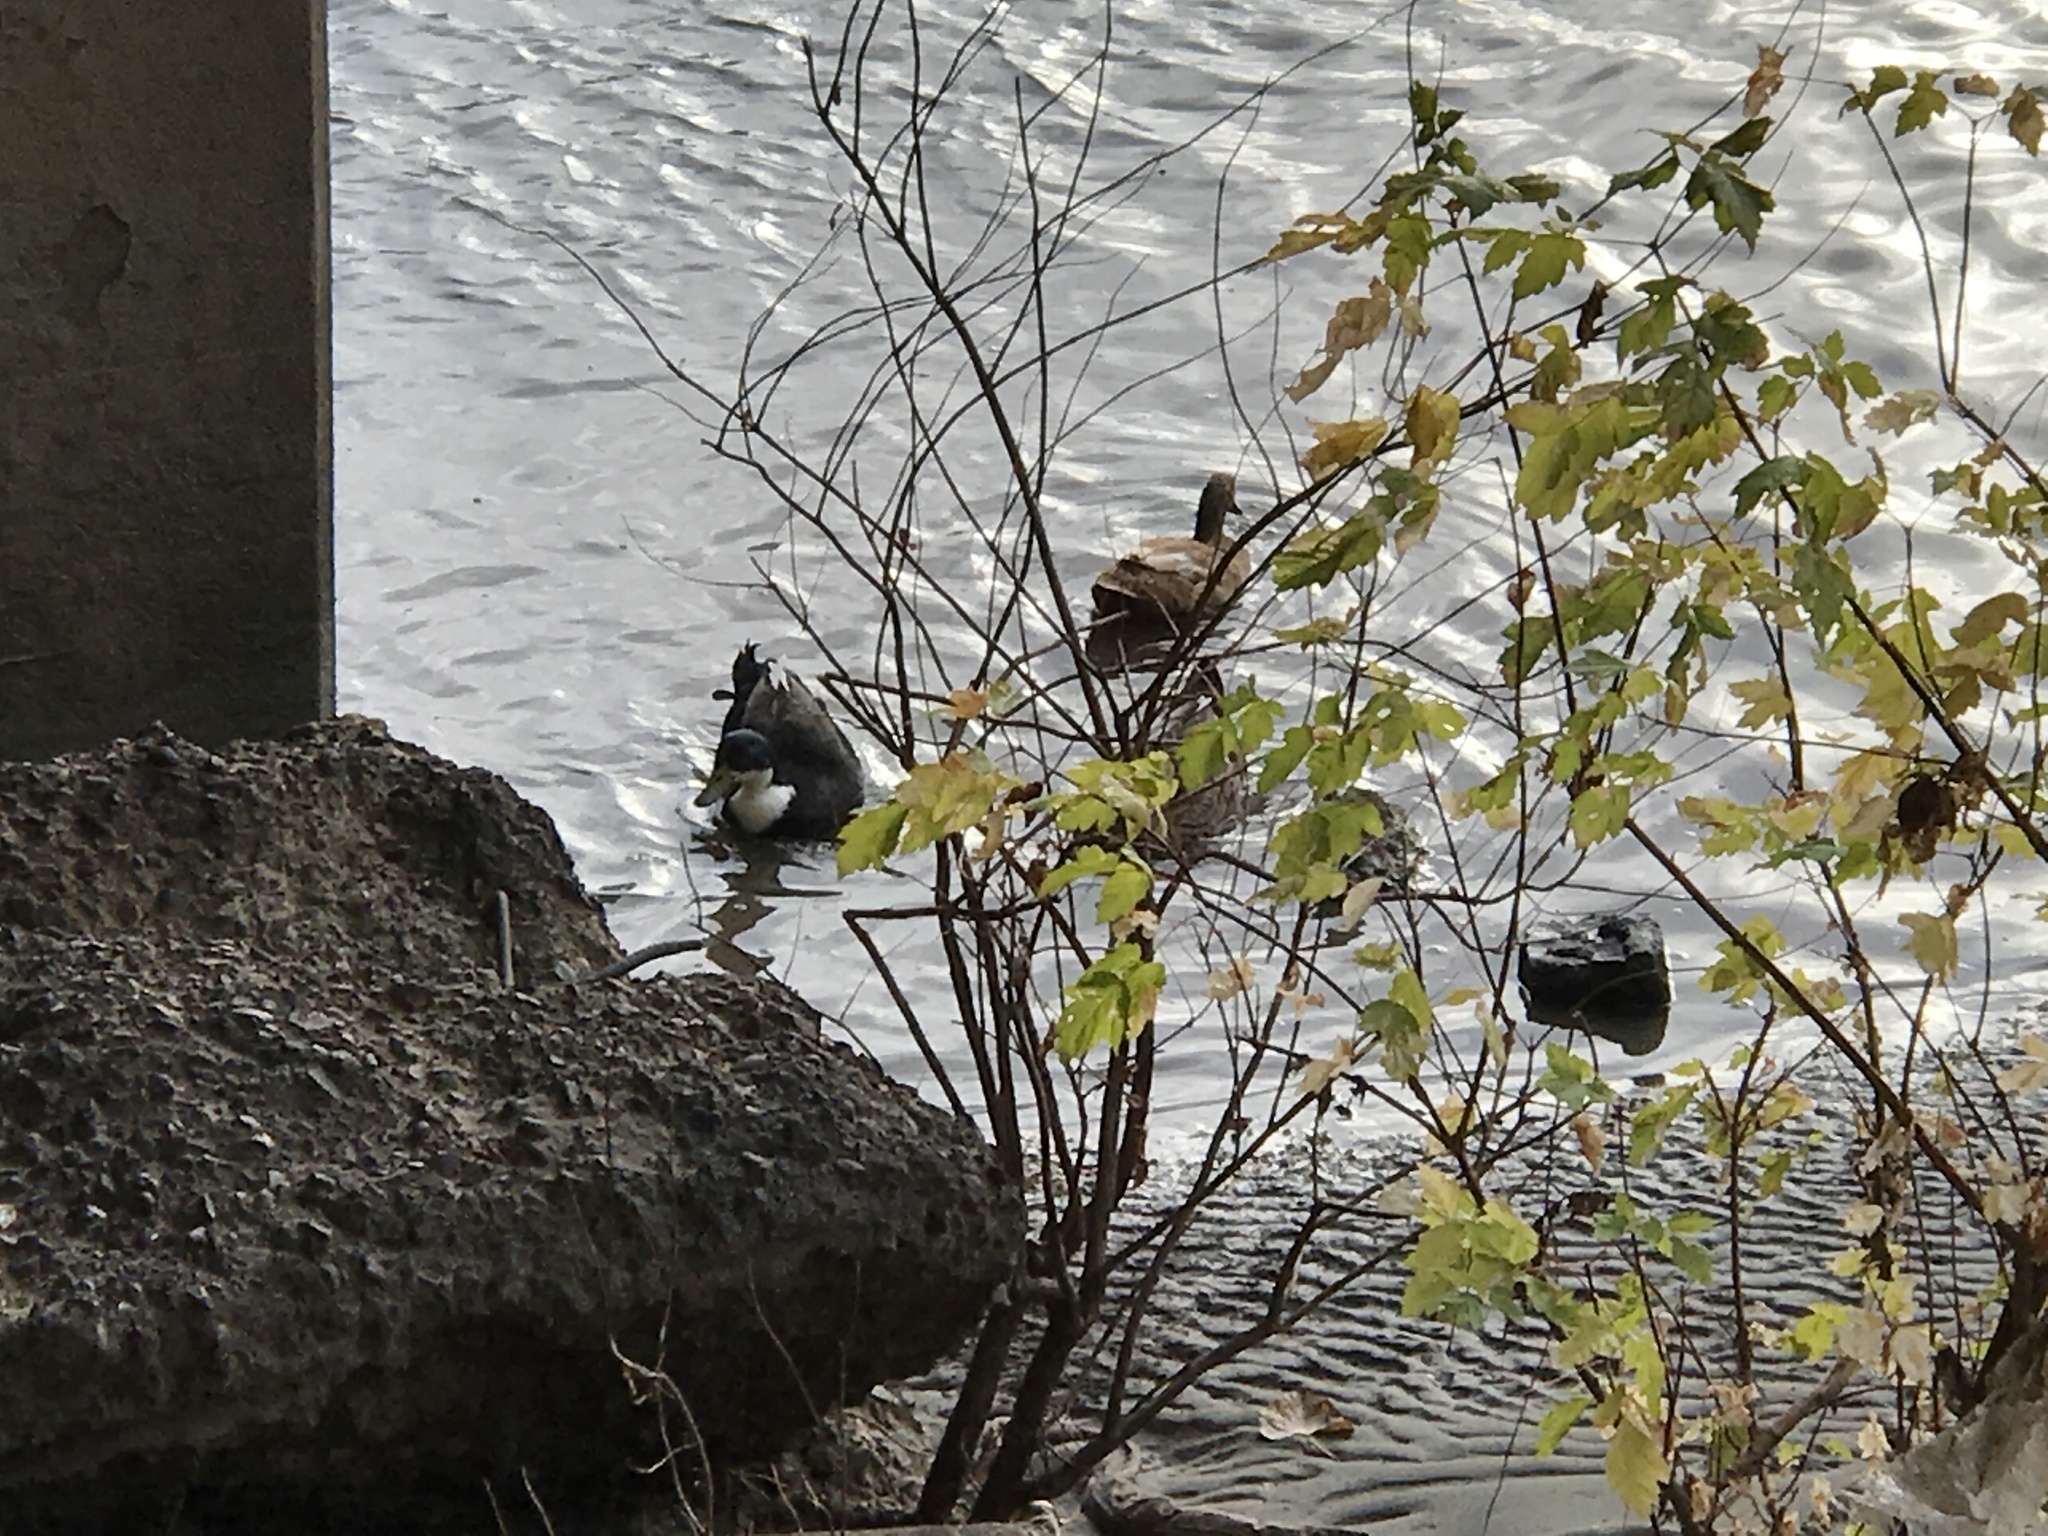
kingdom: Animalia
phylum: Chordata
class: Aves
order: Anseriformes
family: Anatidae
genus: Anas
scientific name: Anas platyrhynchos
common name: Mallard
